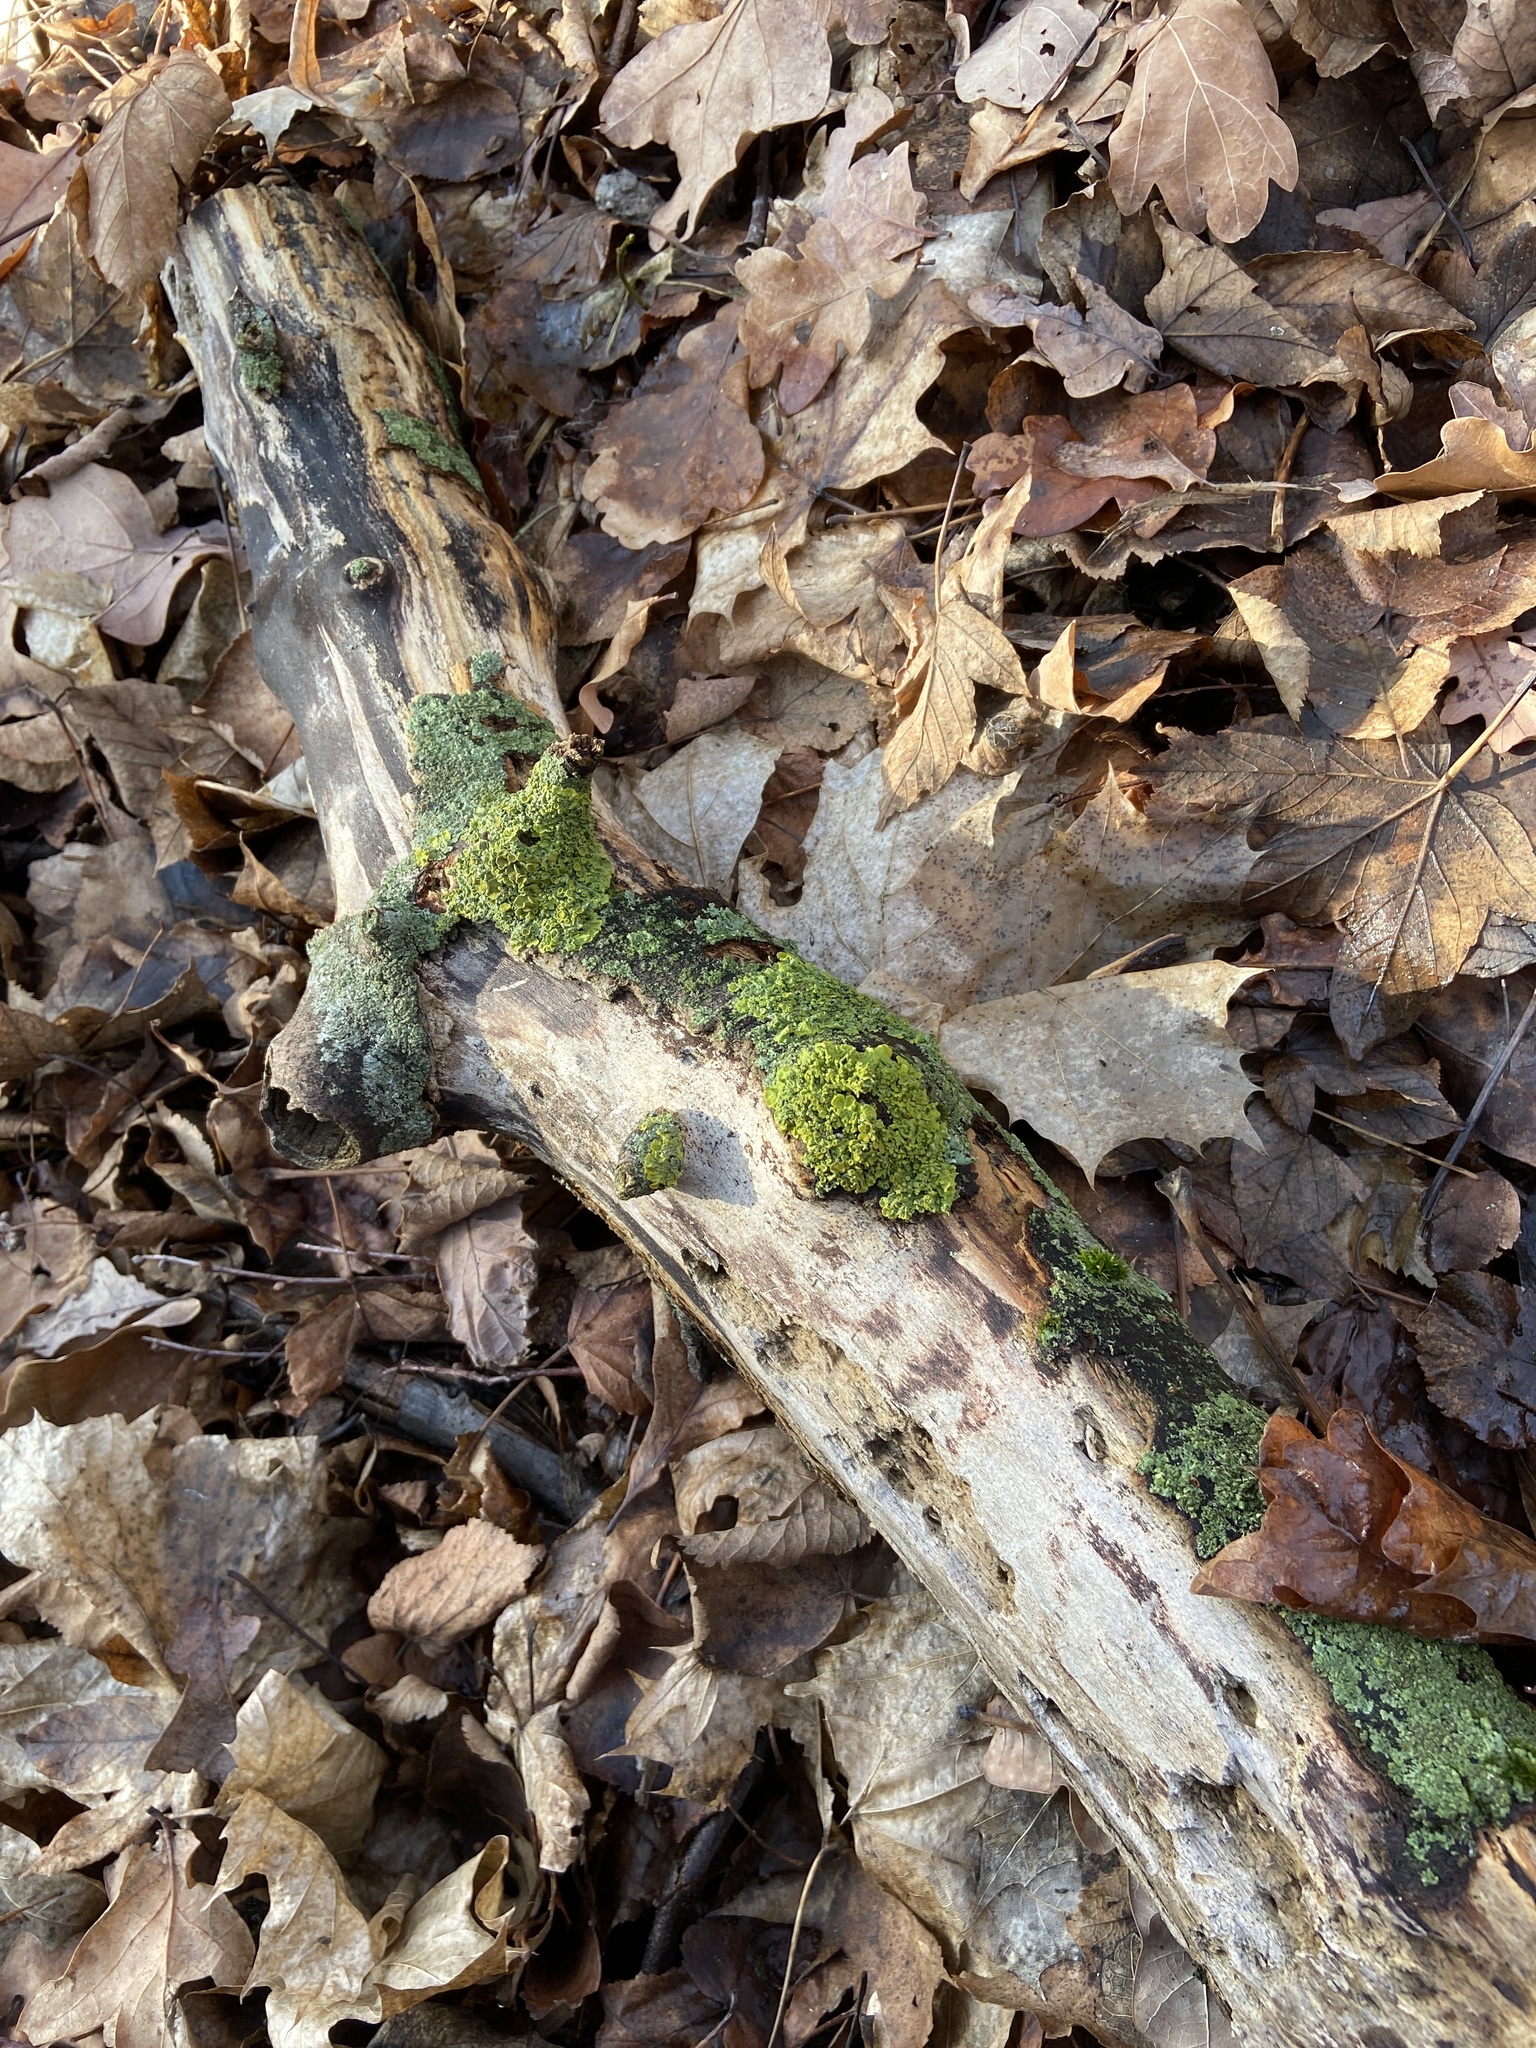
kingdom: Fungi
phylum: Ascomycota
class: Lecanoromycetes
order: Teloschistales
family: Teloschistaceae
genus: Xanthoria
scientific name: Xanthoria parietina
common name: Common orange lichen
